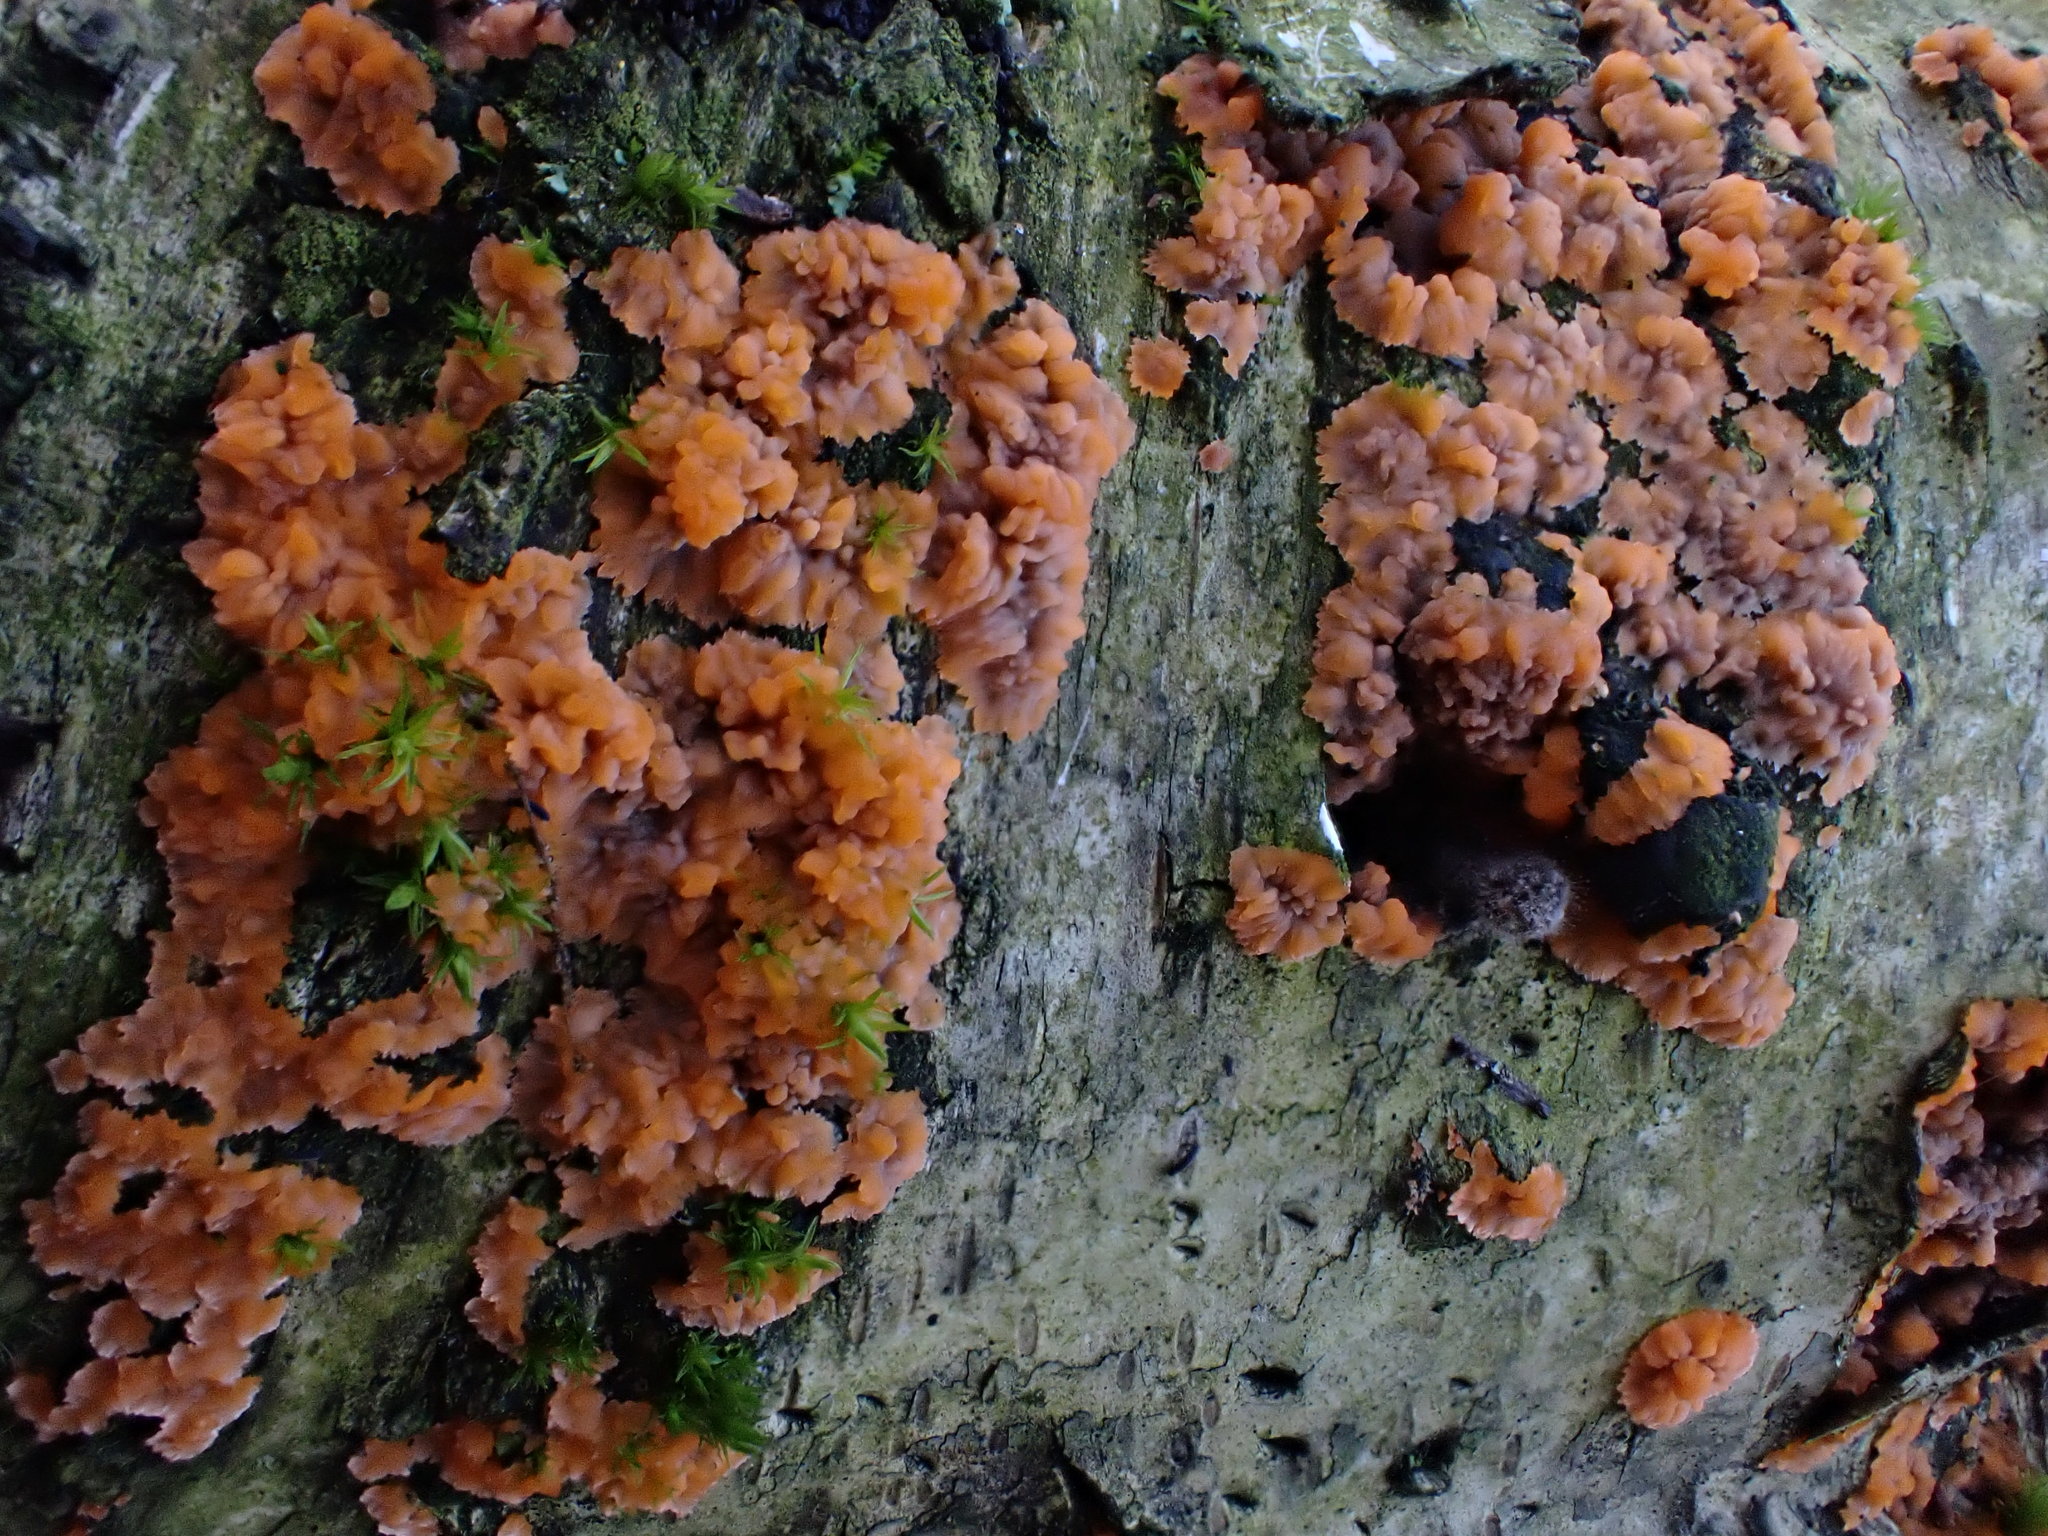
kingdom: Fungi
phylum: Basidiomycota
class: Agaricomycetes
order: Polyporales
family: Meruliaceae
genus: Phlebia
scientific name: Phlebia radiata
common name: Wrinkled crust
